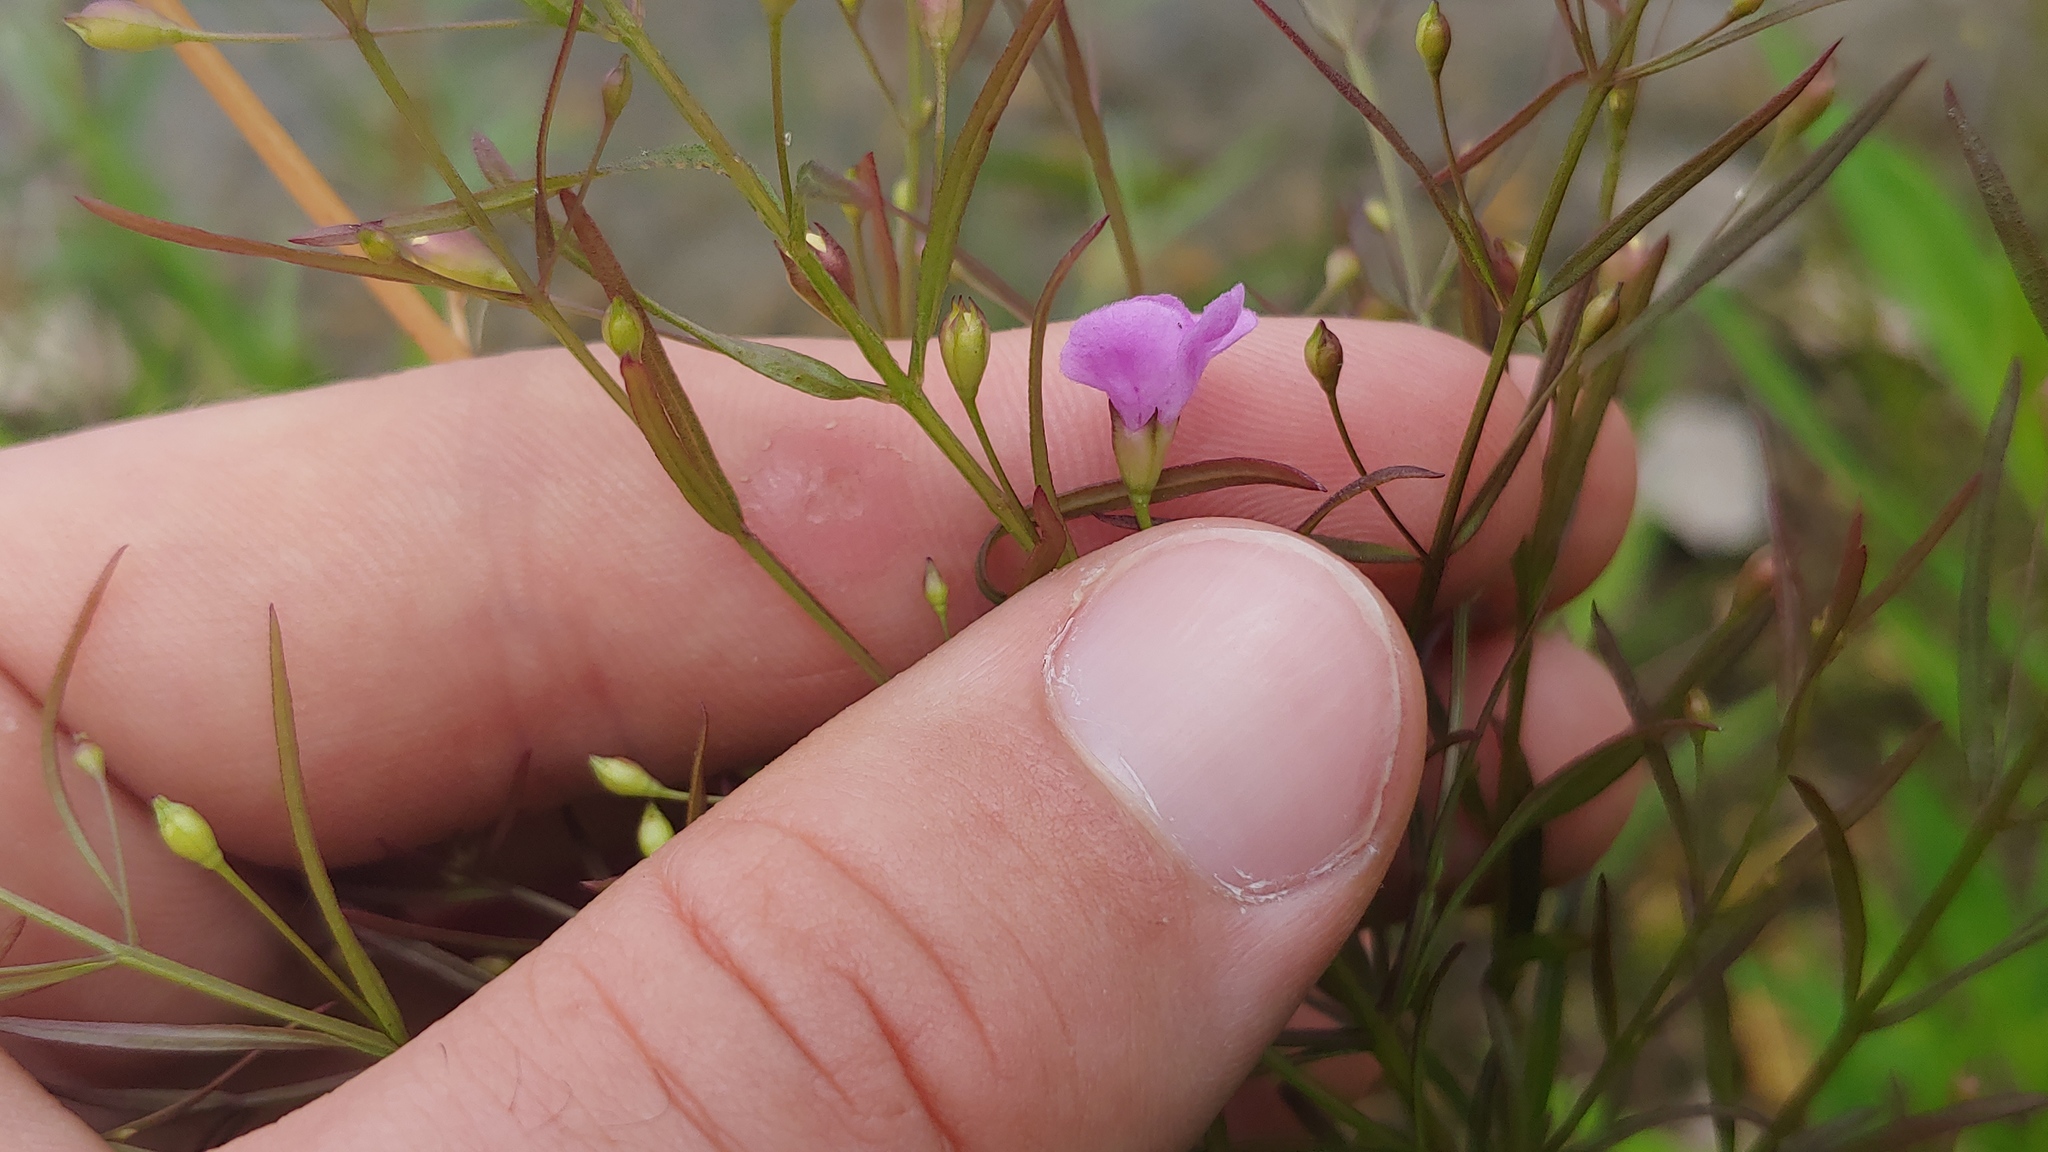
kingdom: Plantae
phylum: Tracheophyta
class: Magnoliopsida
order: Lamiales
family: Orobanchaceae
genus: Agalinis
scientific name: Agalinis tenuifolia
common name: Slender agalinis
